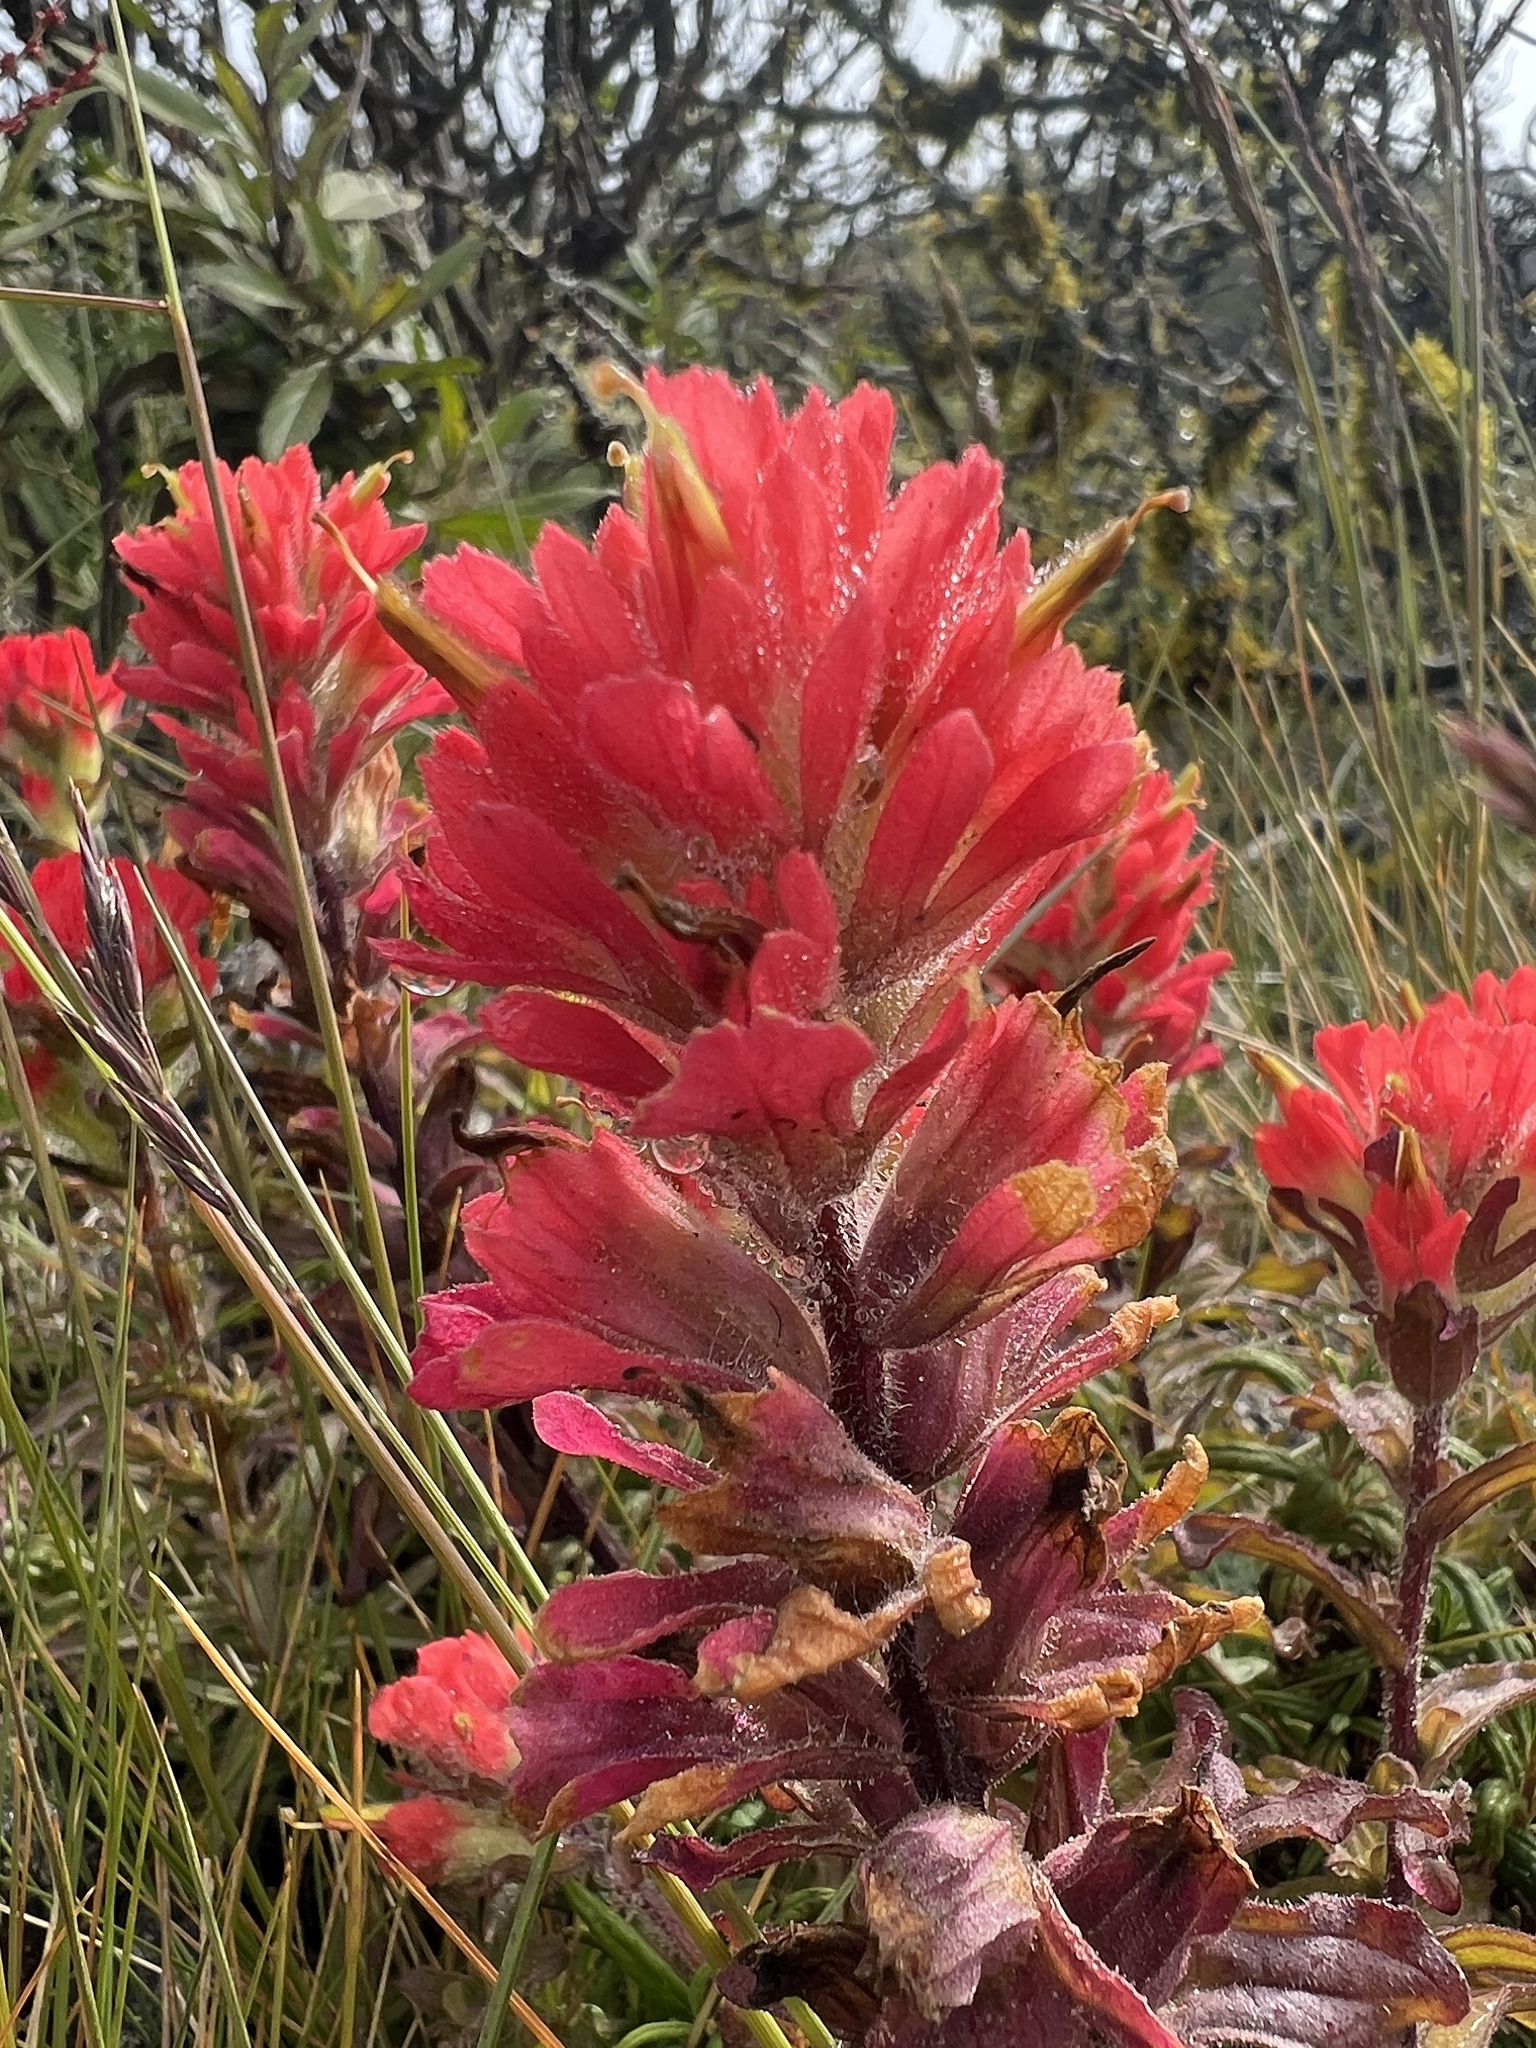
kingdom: Plantae
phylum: Tracheophyta
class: Magnoliopsida
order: Lamiales
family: Orobanchaceae
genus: Castilleja
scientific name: Castilleja affinis
